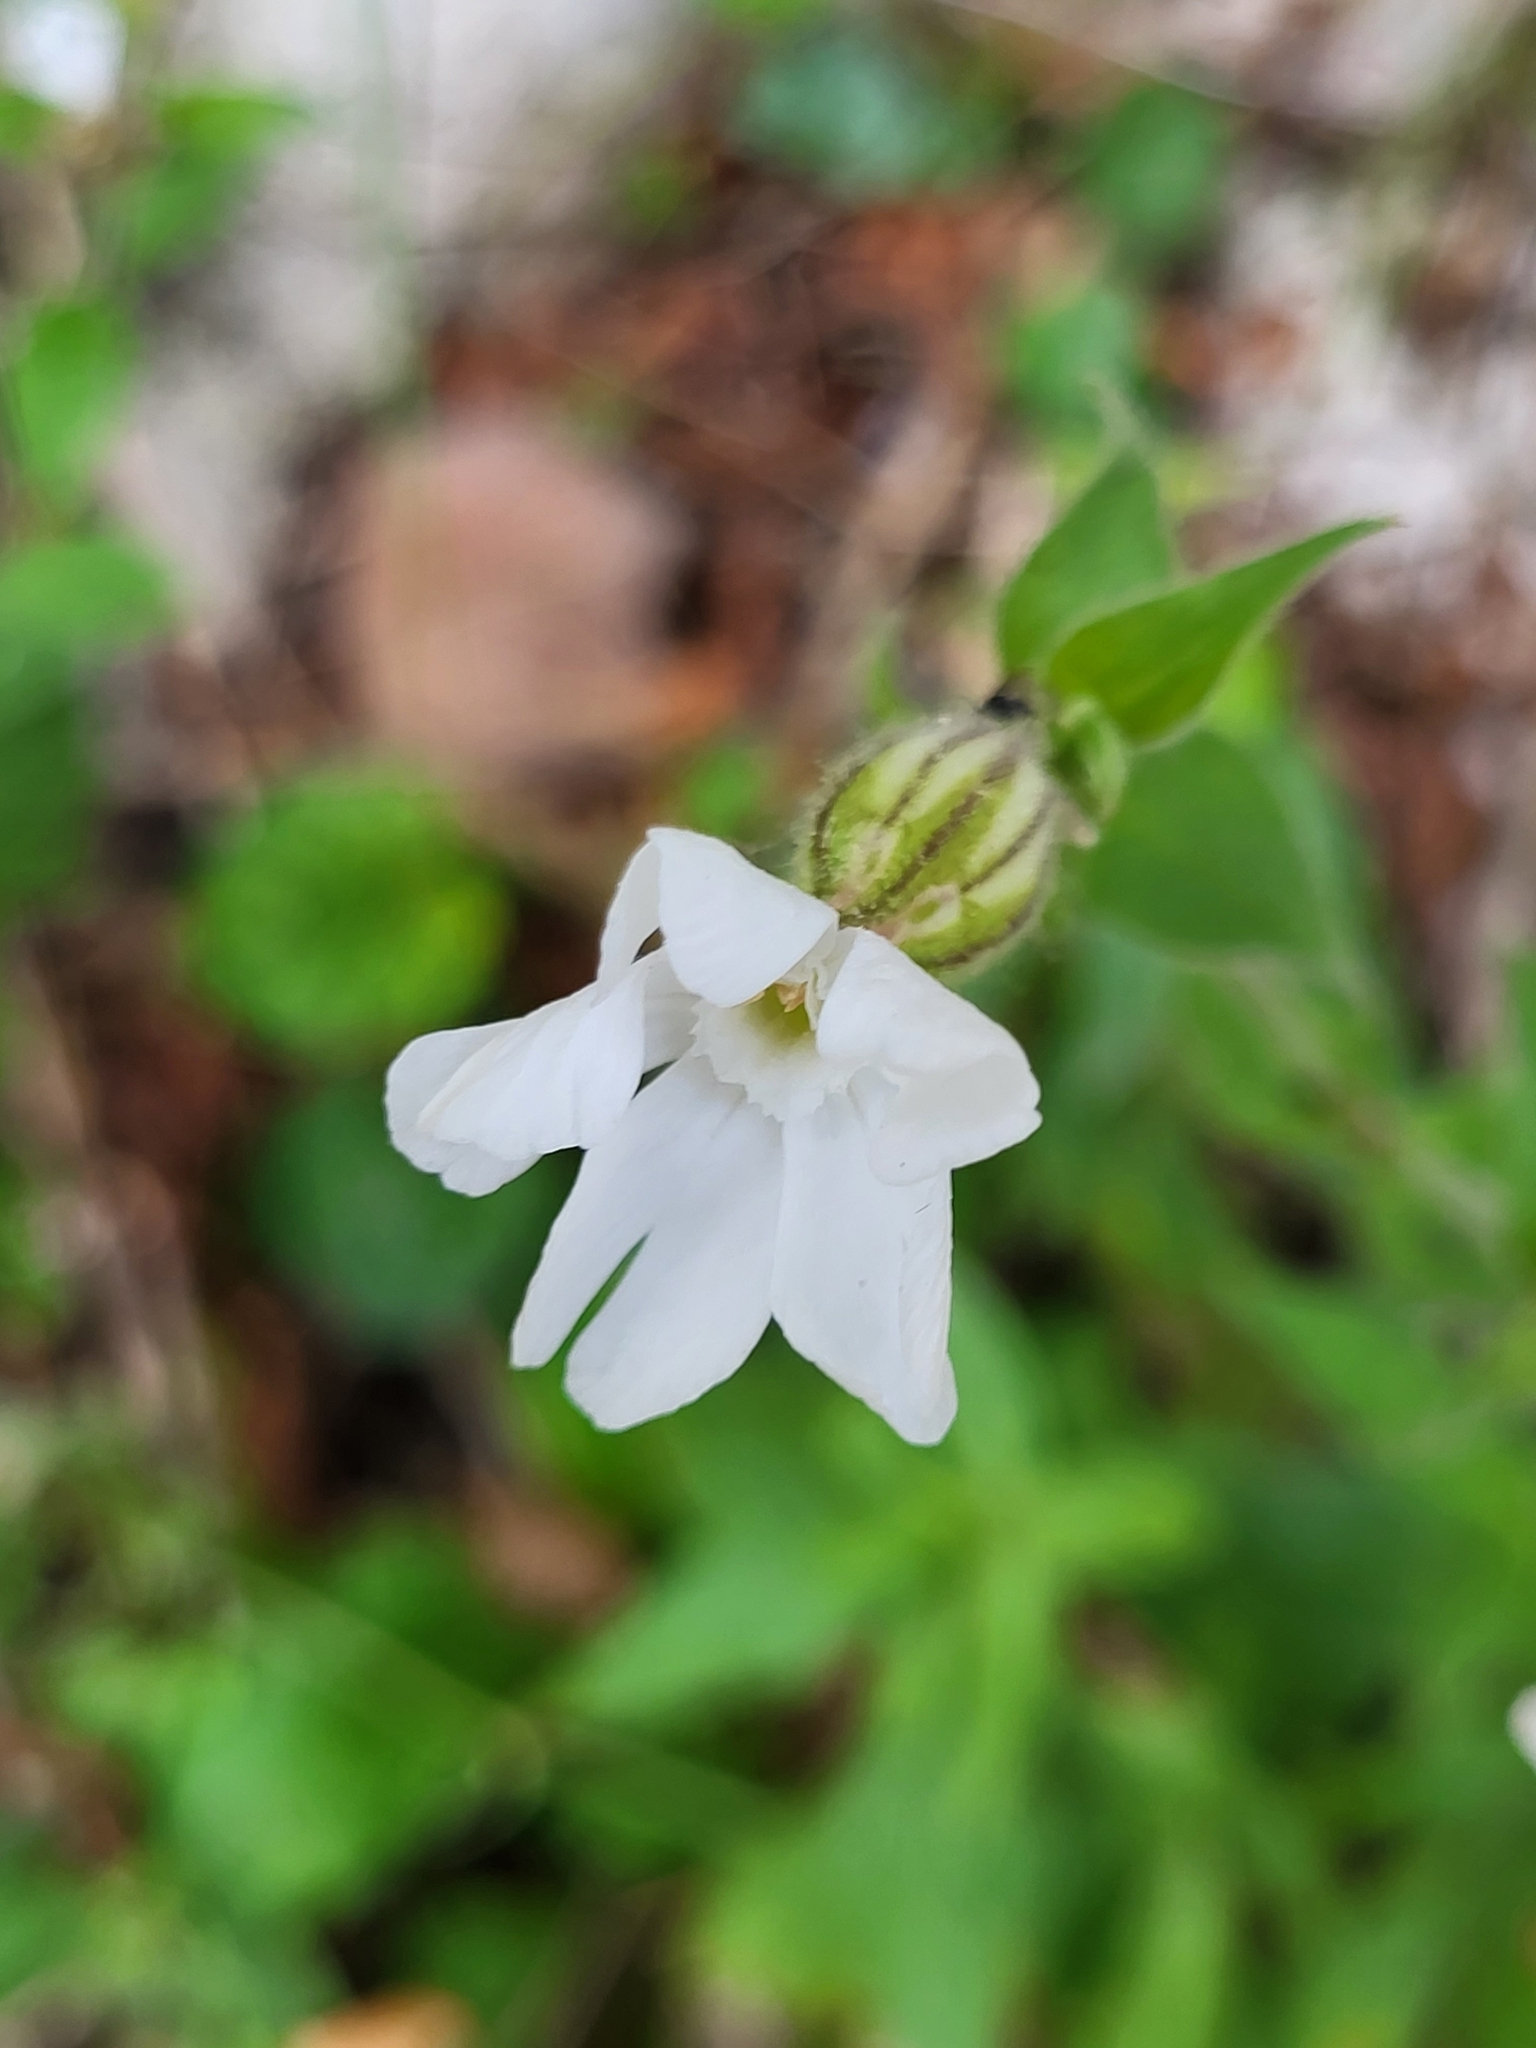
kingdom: Plantae
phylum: Tracheophyta
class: Magnoliopsida
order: Caryophyllales
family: Caryophyllaceae
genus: Silene
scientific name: Silene latifolia
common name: White campion
